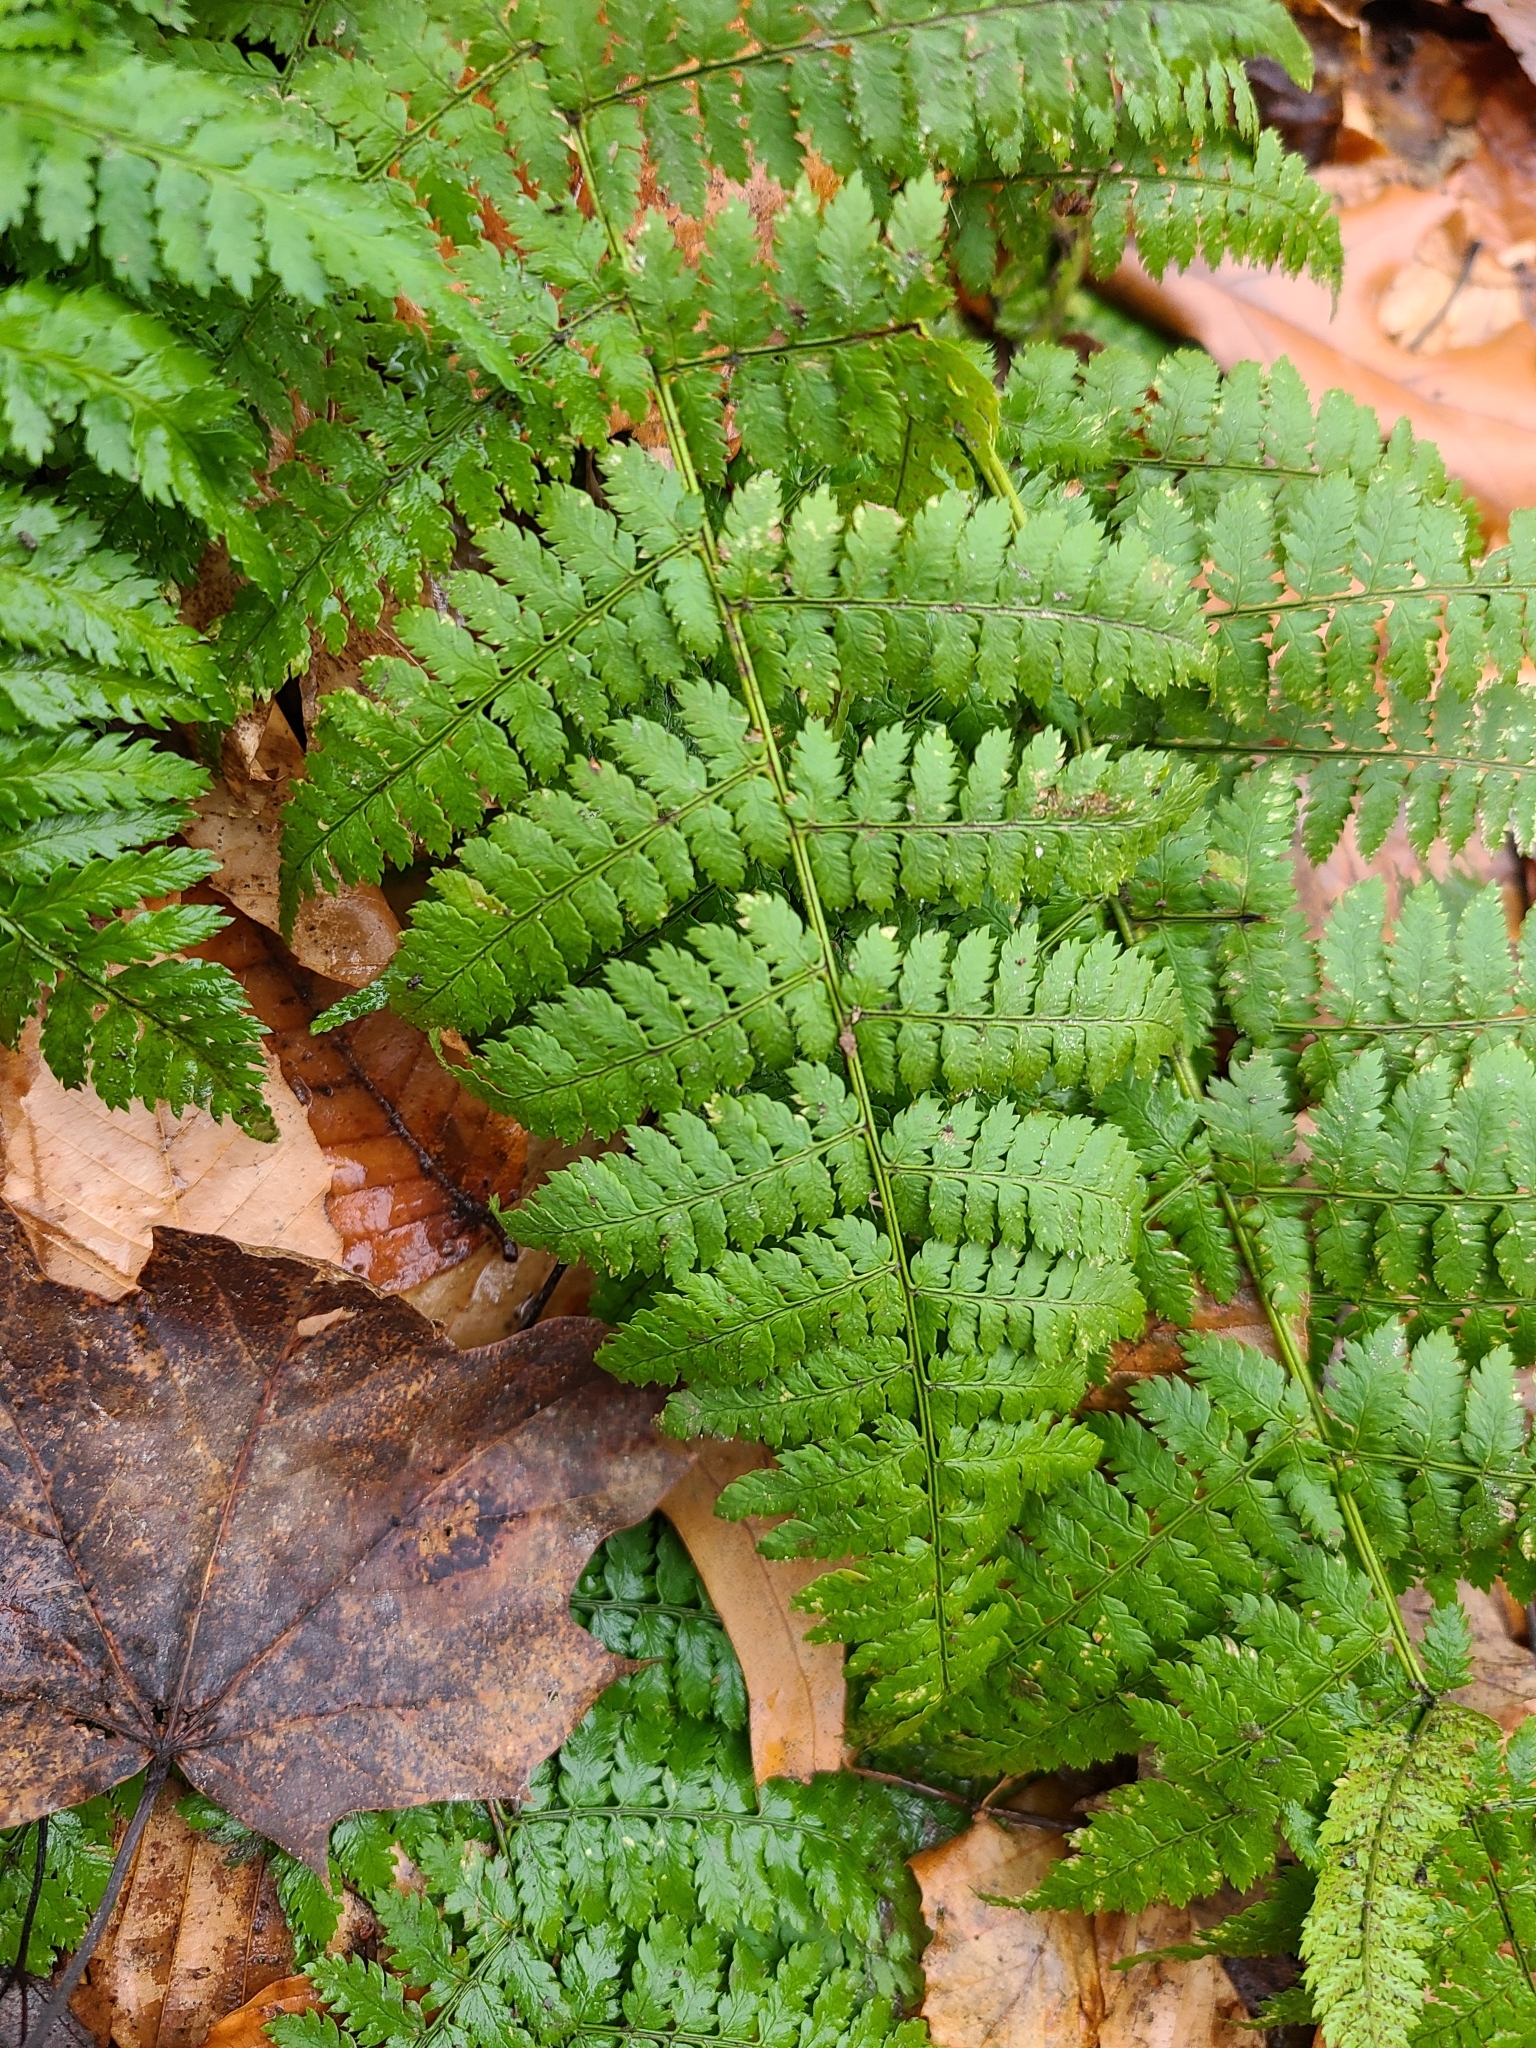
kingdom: Plantae
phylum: Tracheophyta
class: Polypodiopsida
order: Polypodiales
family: Dryopteridaceae
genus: Dryopteris
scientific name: Dryopteris intermedia
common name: Evergreen wood fern
